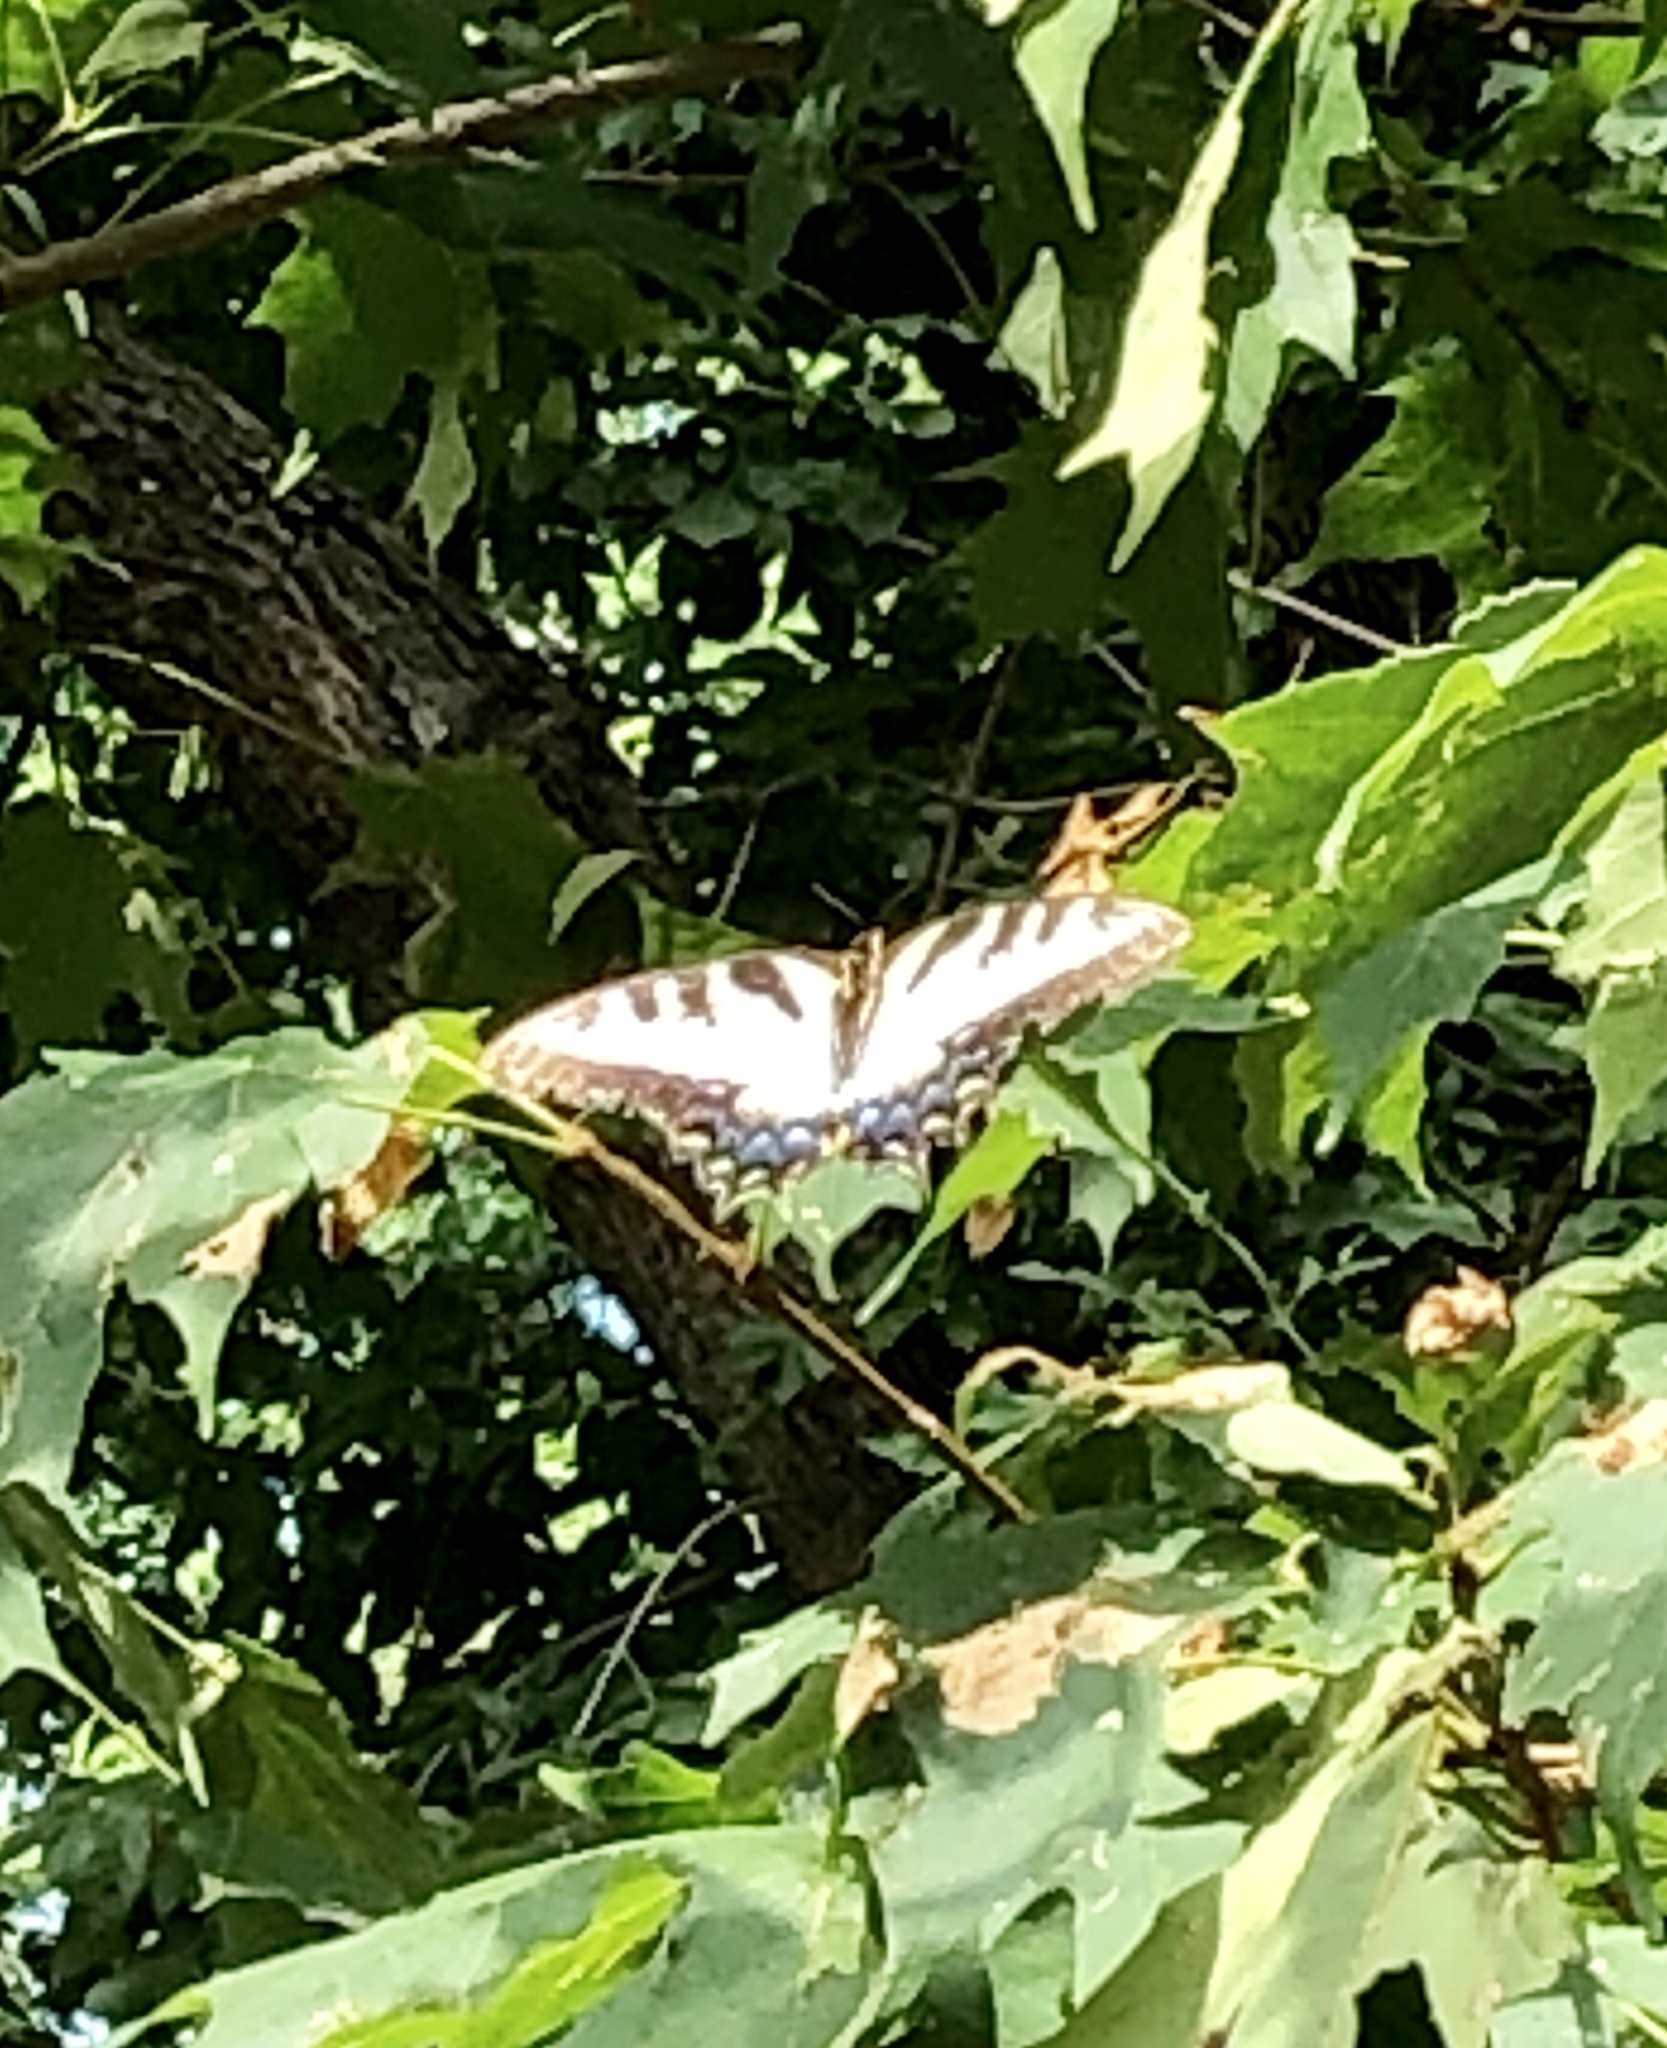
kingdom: Animalia
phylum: Arthropoda
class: Insecta
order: Lepidoptera
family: Papilionidae
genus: Papilio
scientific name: Papilio glaucus
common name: Tiger swallowtail
